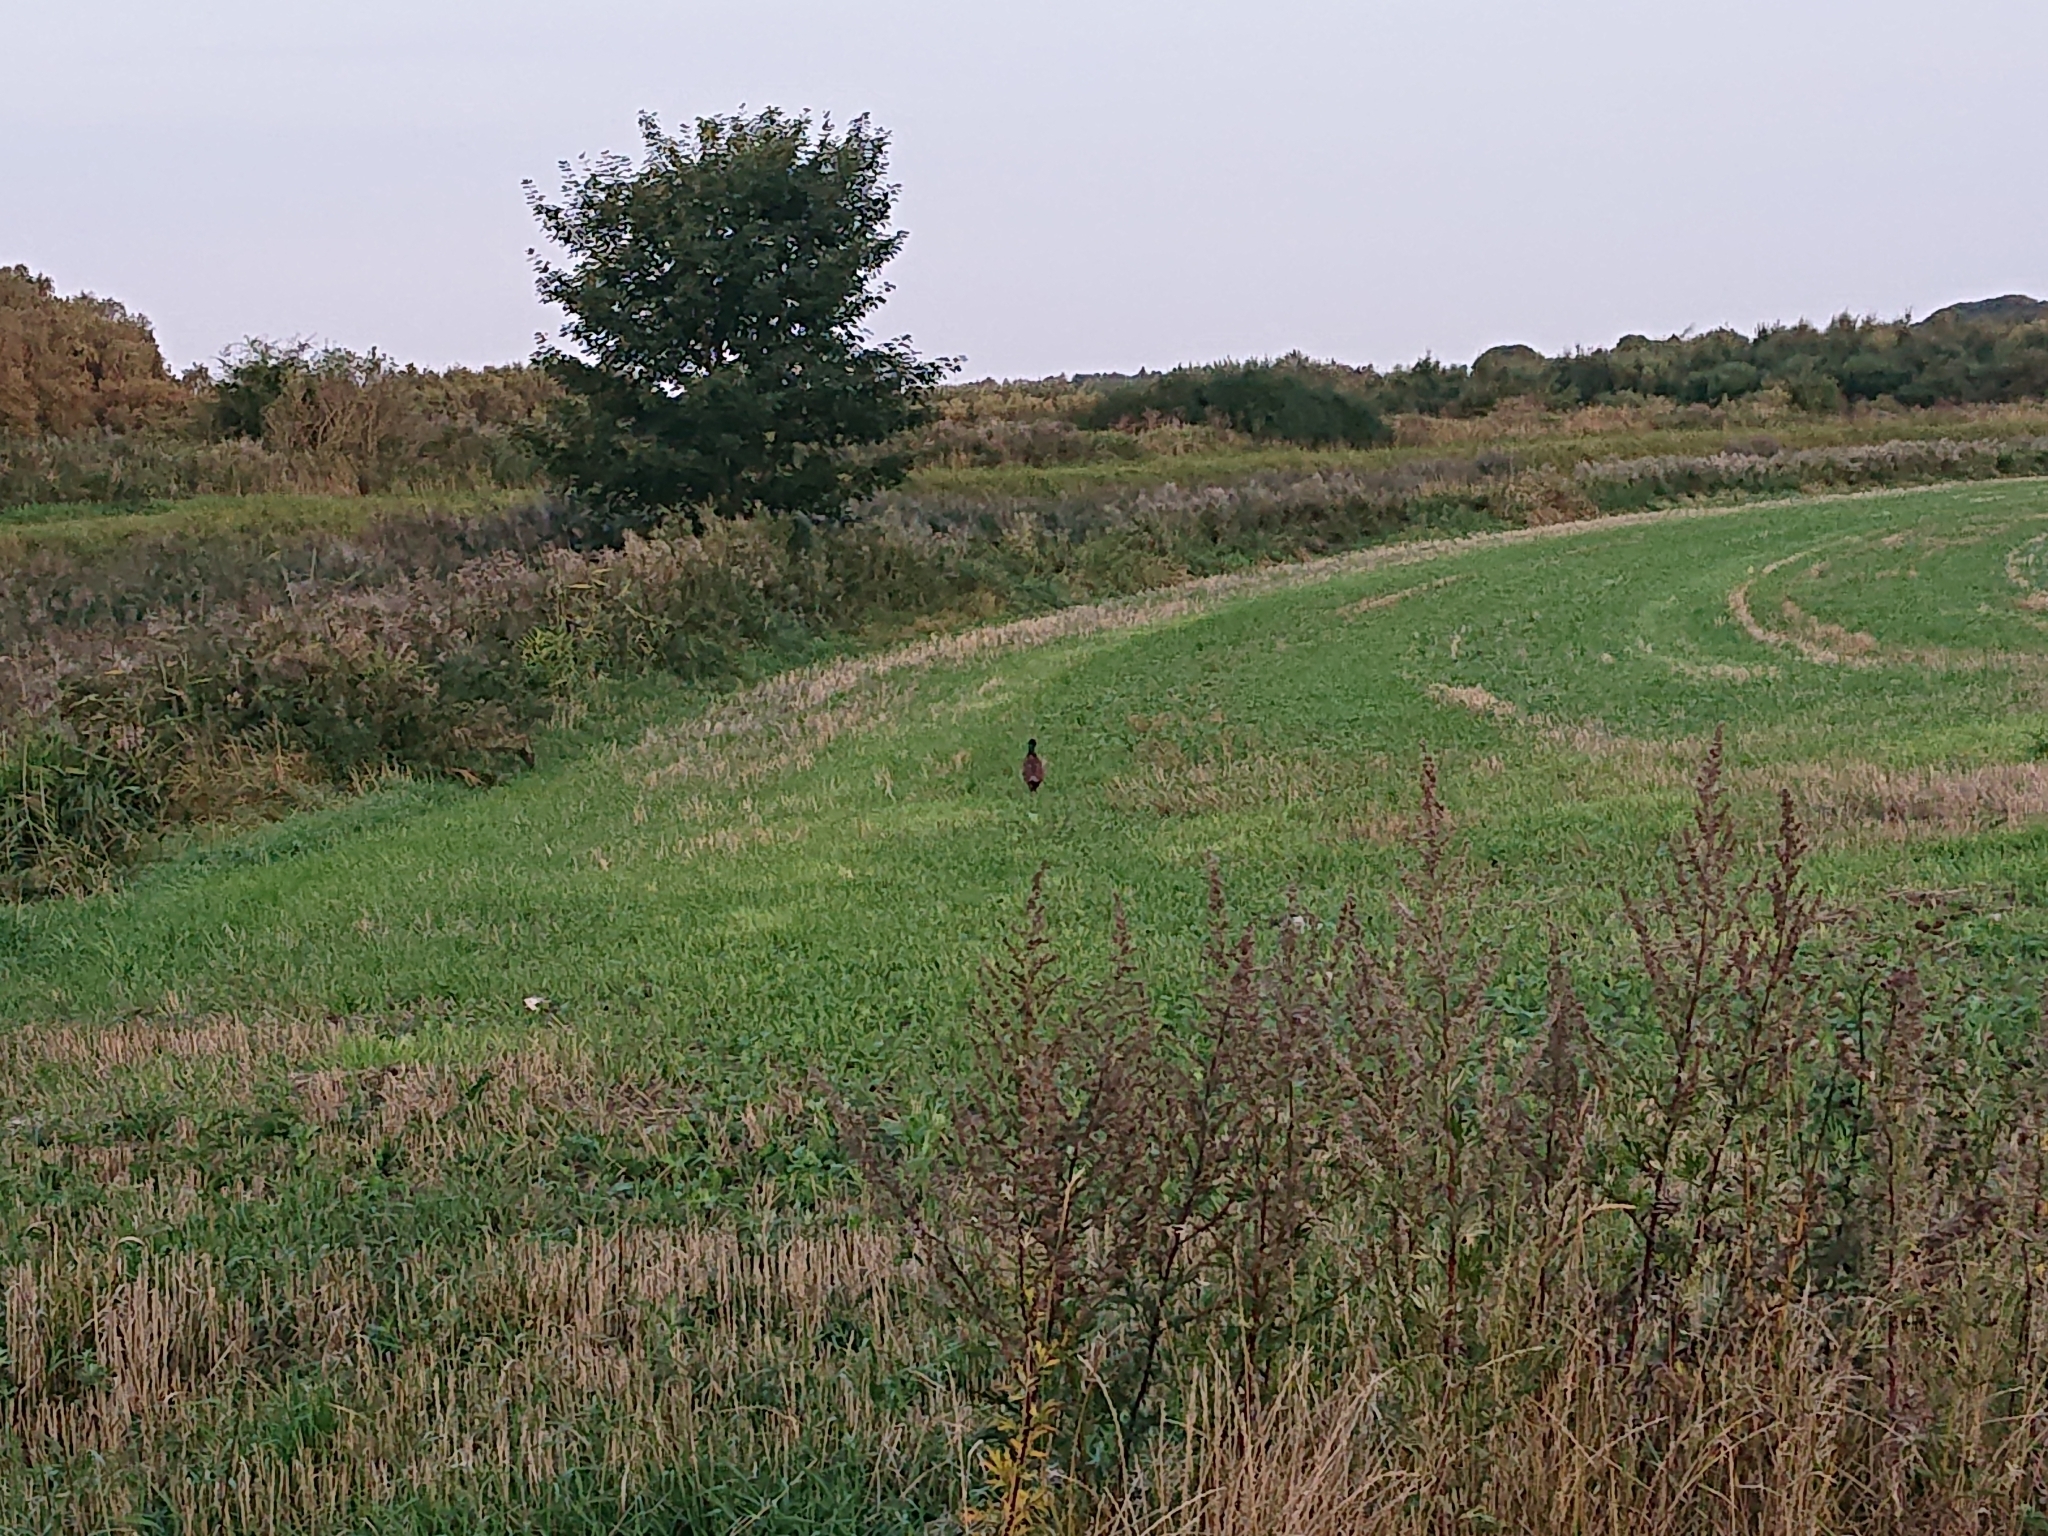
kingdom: Animalia
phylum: Chordata
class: Aves
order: Galliformes
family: Phasianidae
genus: Phasianus
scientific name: Phasianus colchicus
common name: Common pheasant
